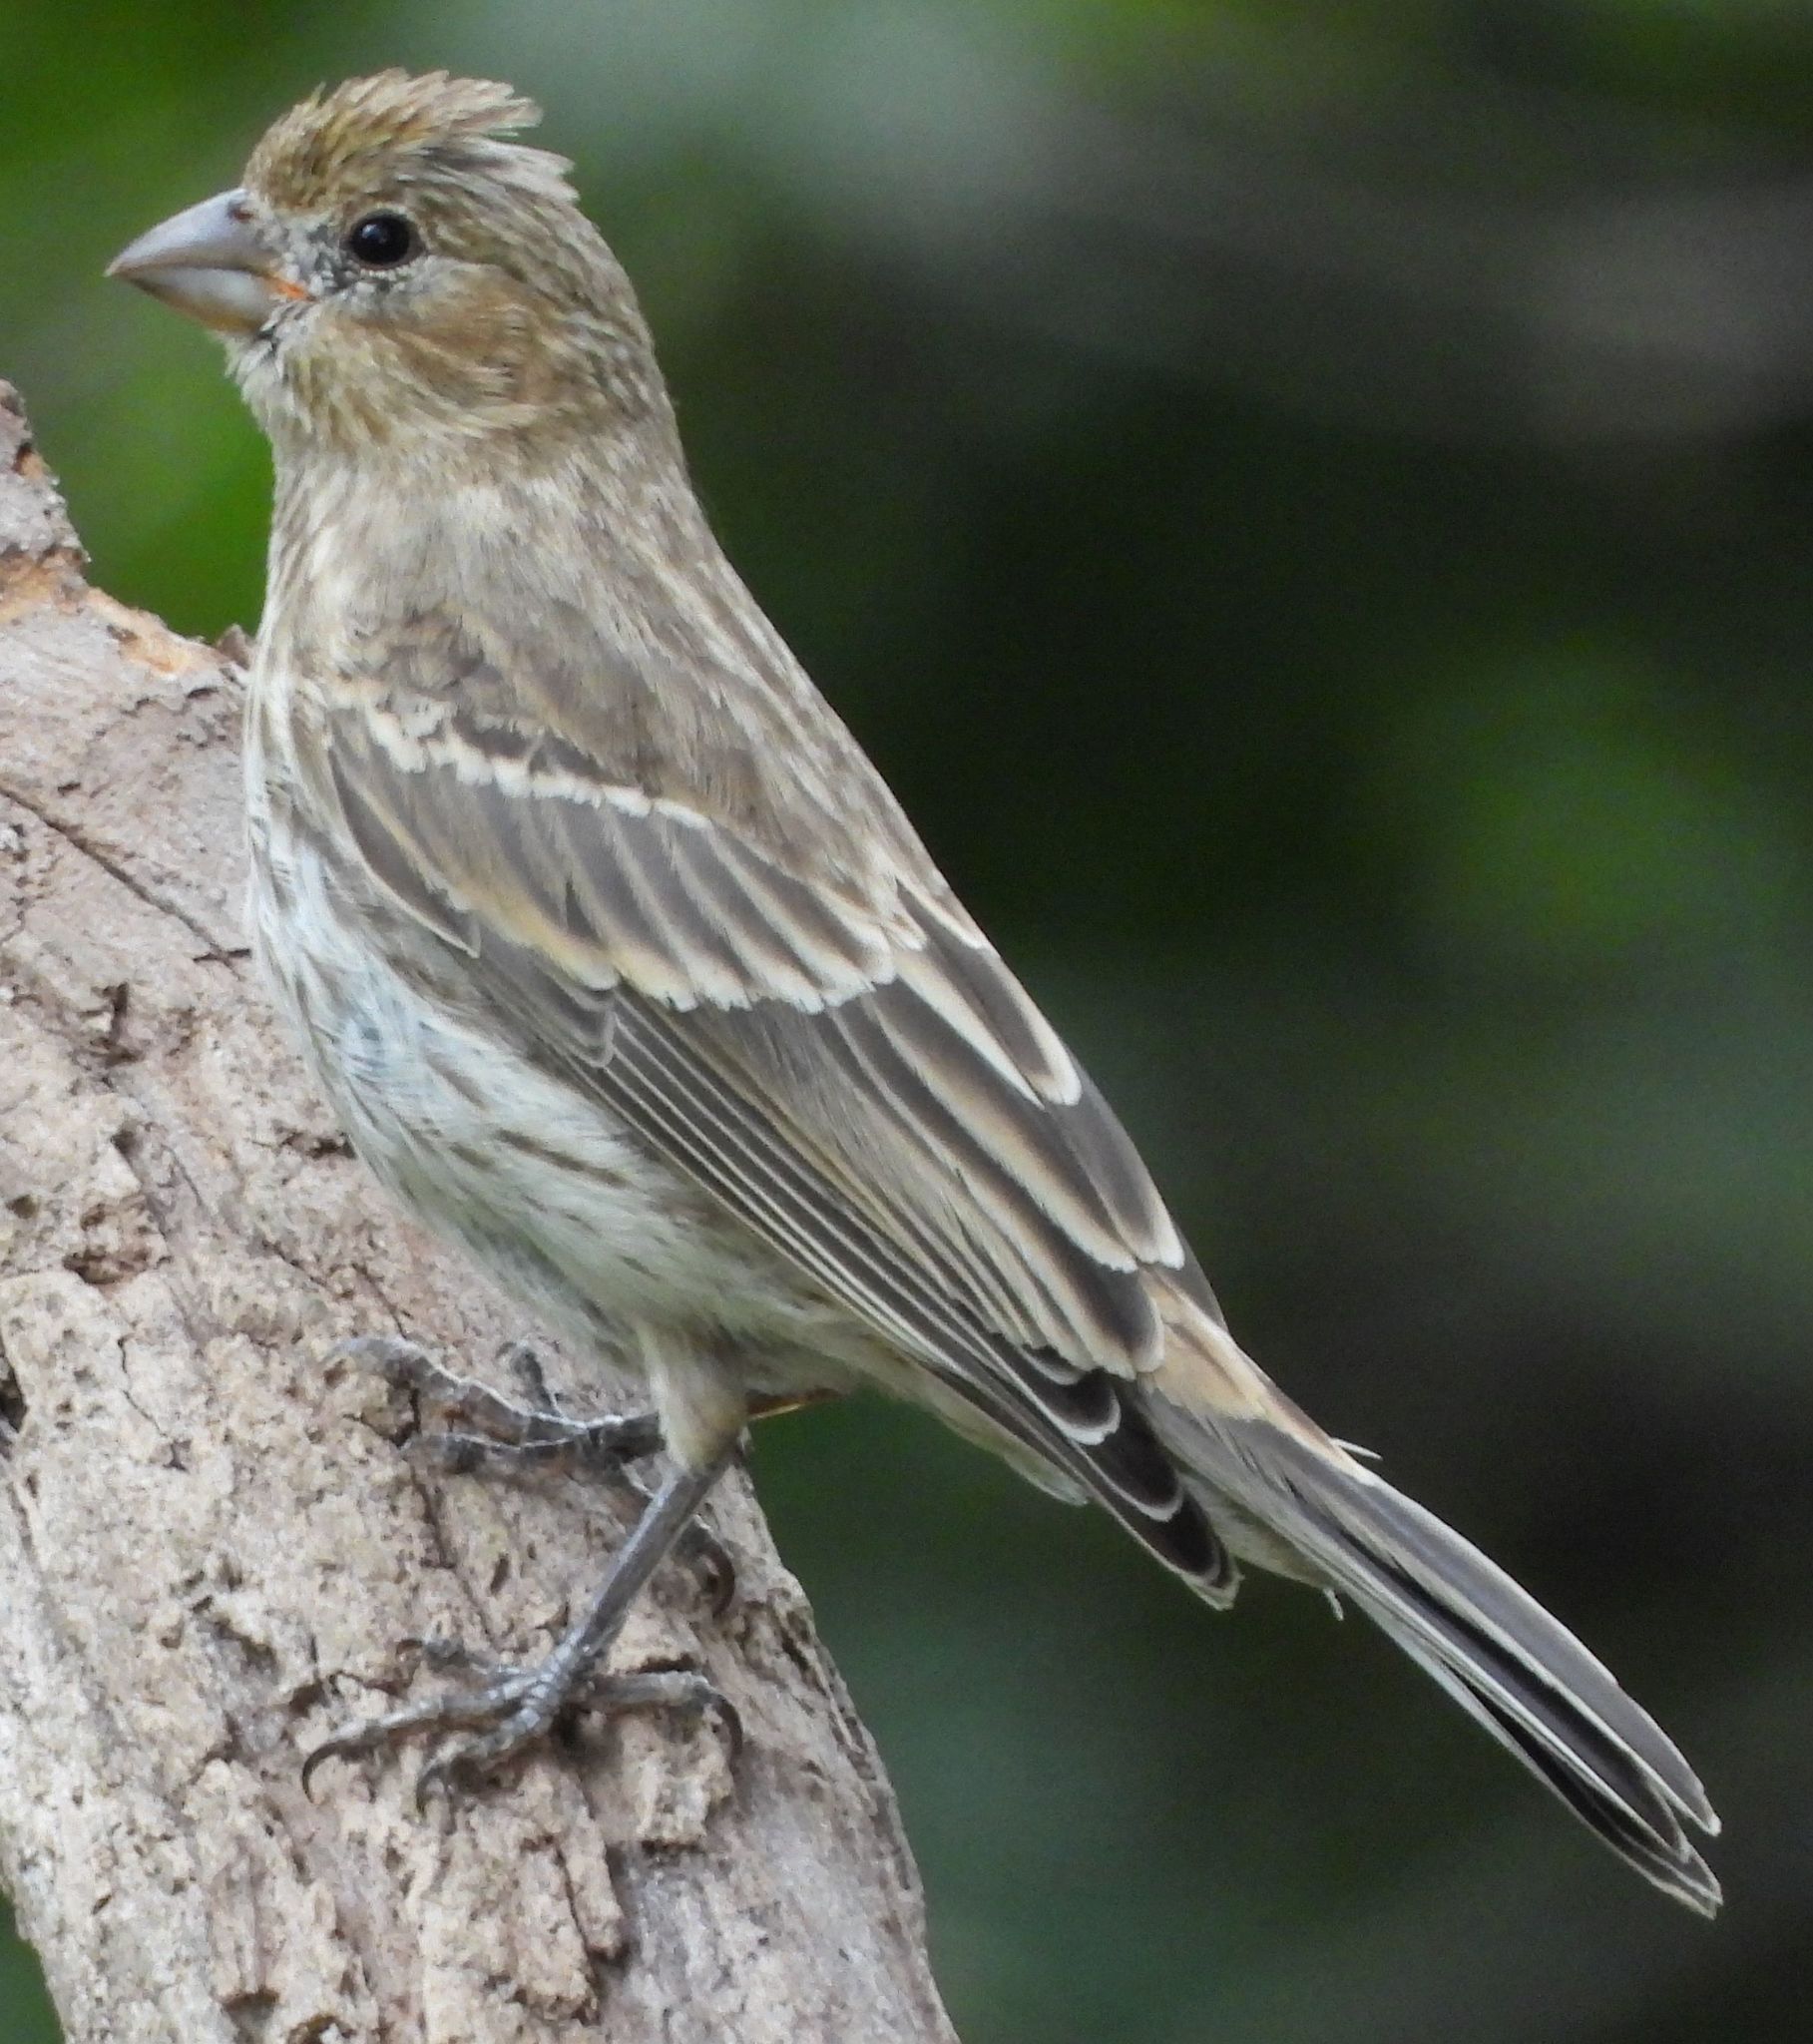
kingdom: Animalia
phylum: Chordata
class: Aves
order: Passeriformes
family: Fringillidae
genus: Haemorhous
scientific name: Haemorhous mexicanus
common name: House finch
